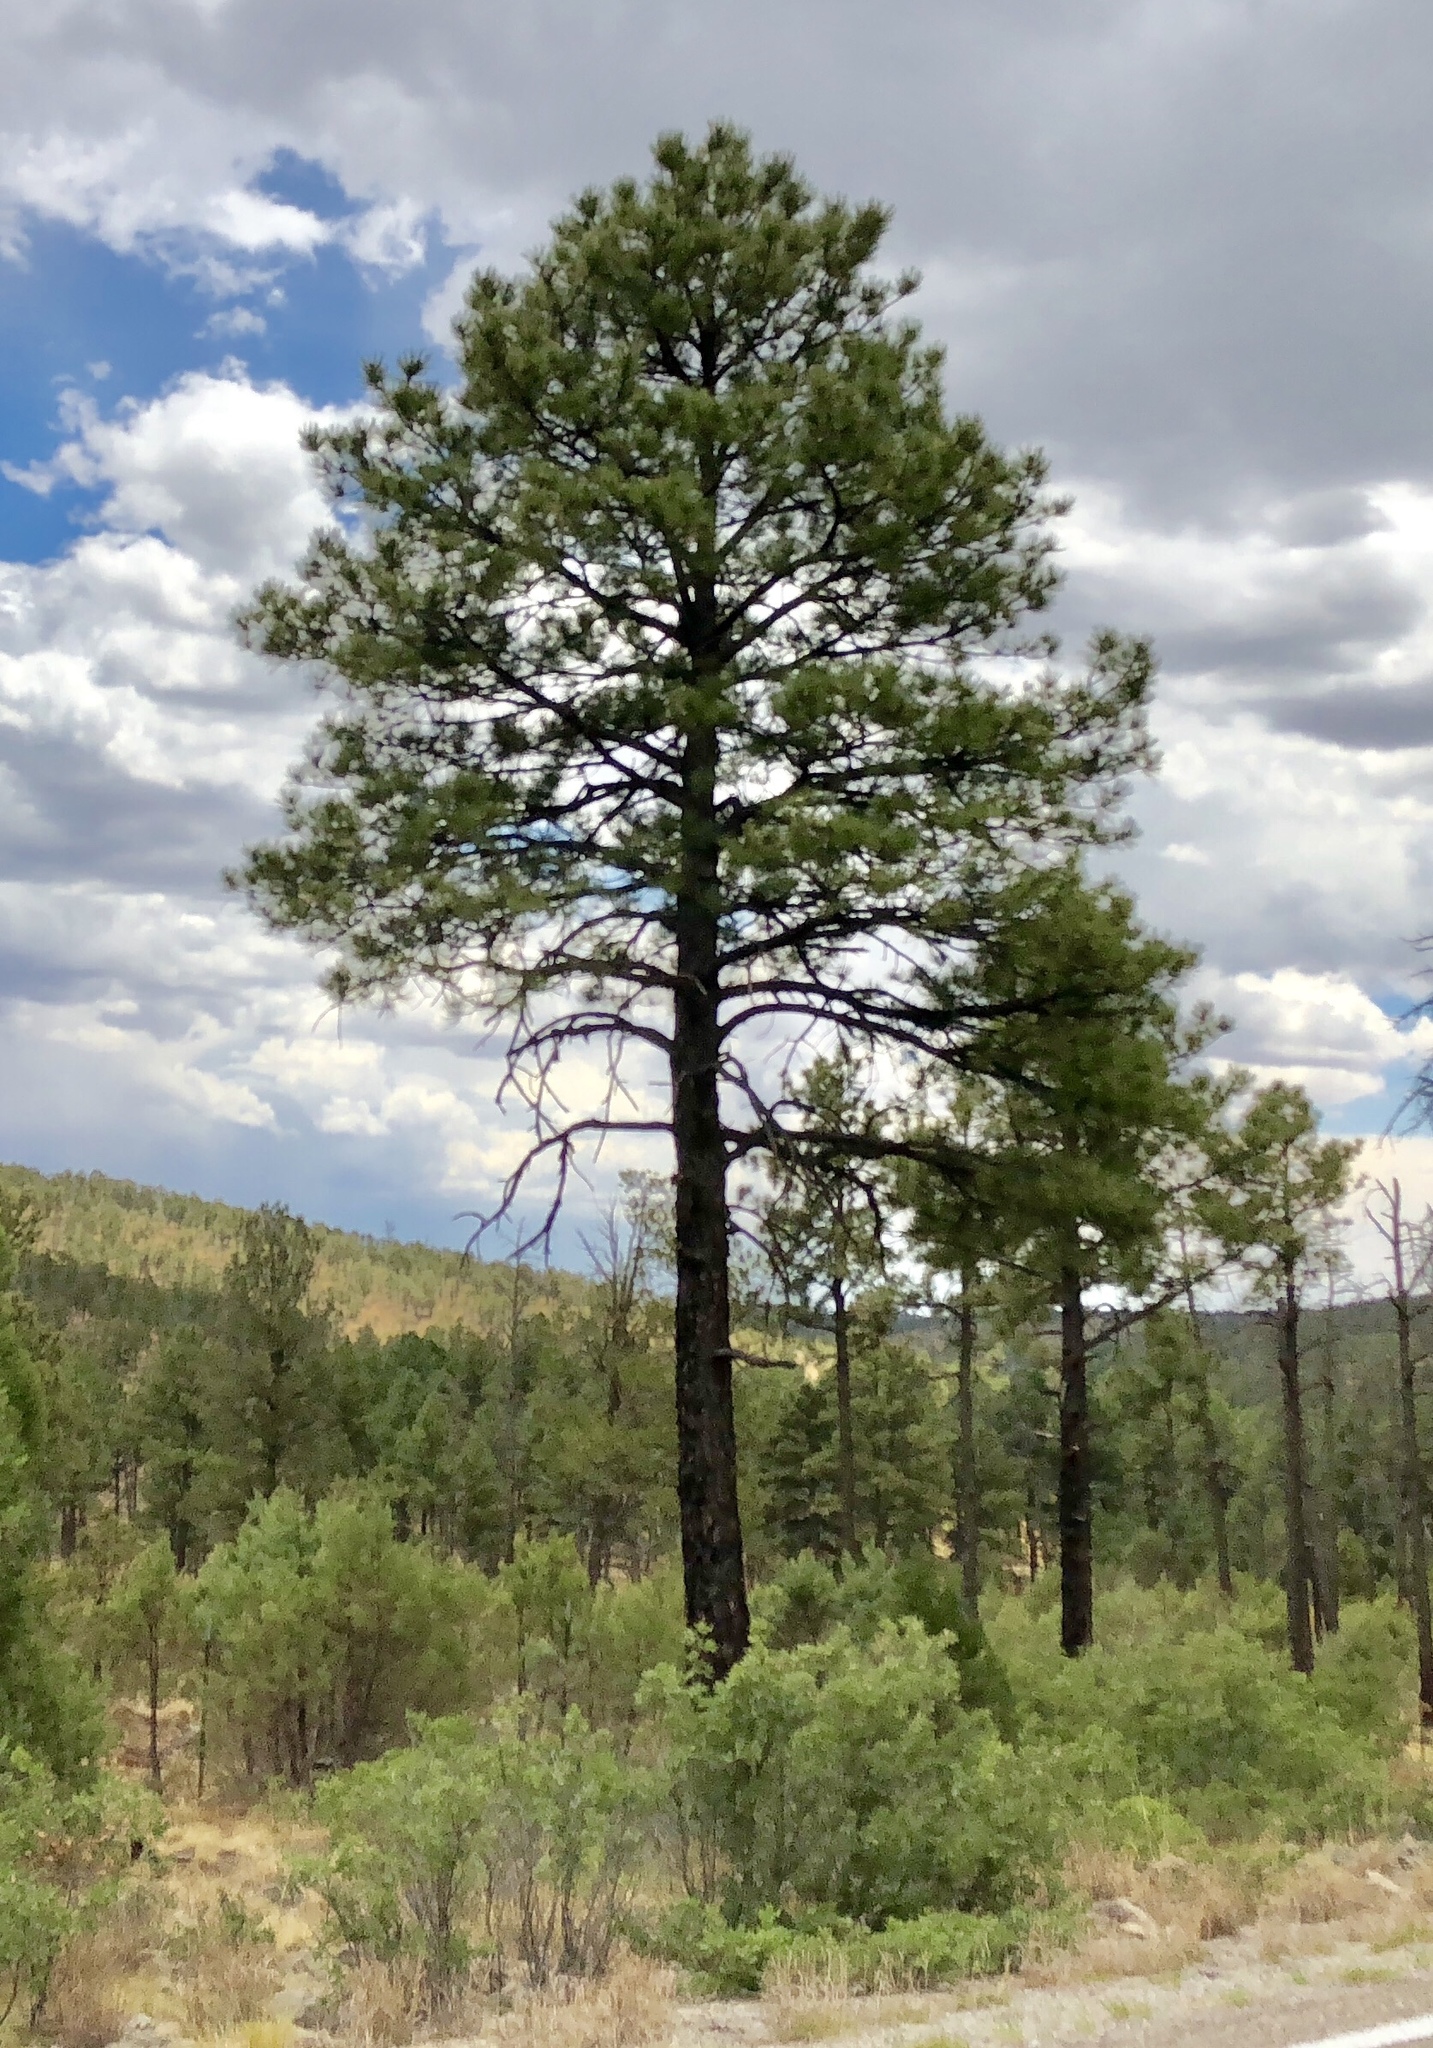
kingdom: Plantae
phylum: Tracheophyta
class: Pinopsida
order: Pinales
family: Pinaceae
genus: Pinus
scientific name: Pinus ponderosa
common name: Western yellow-pine
